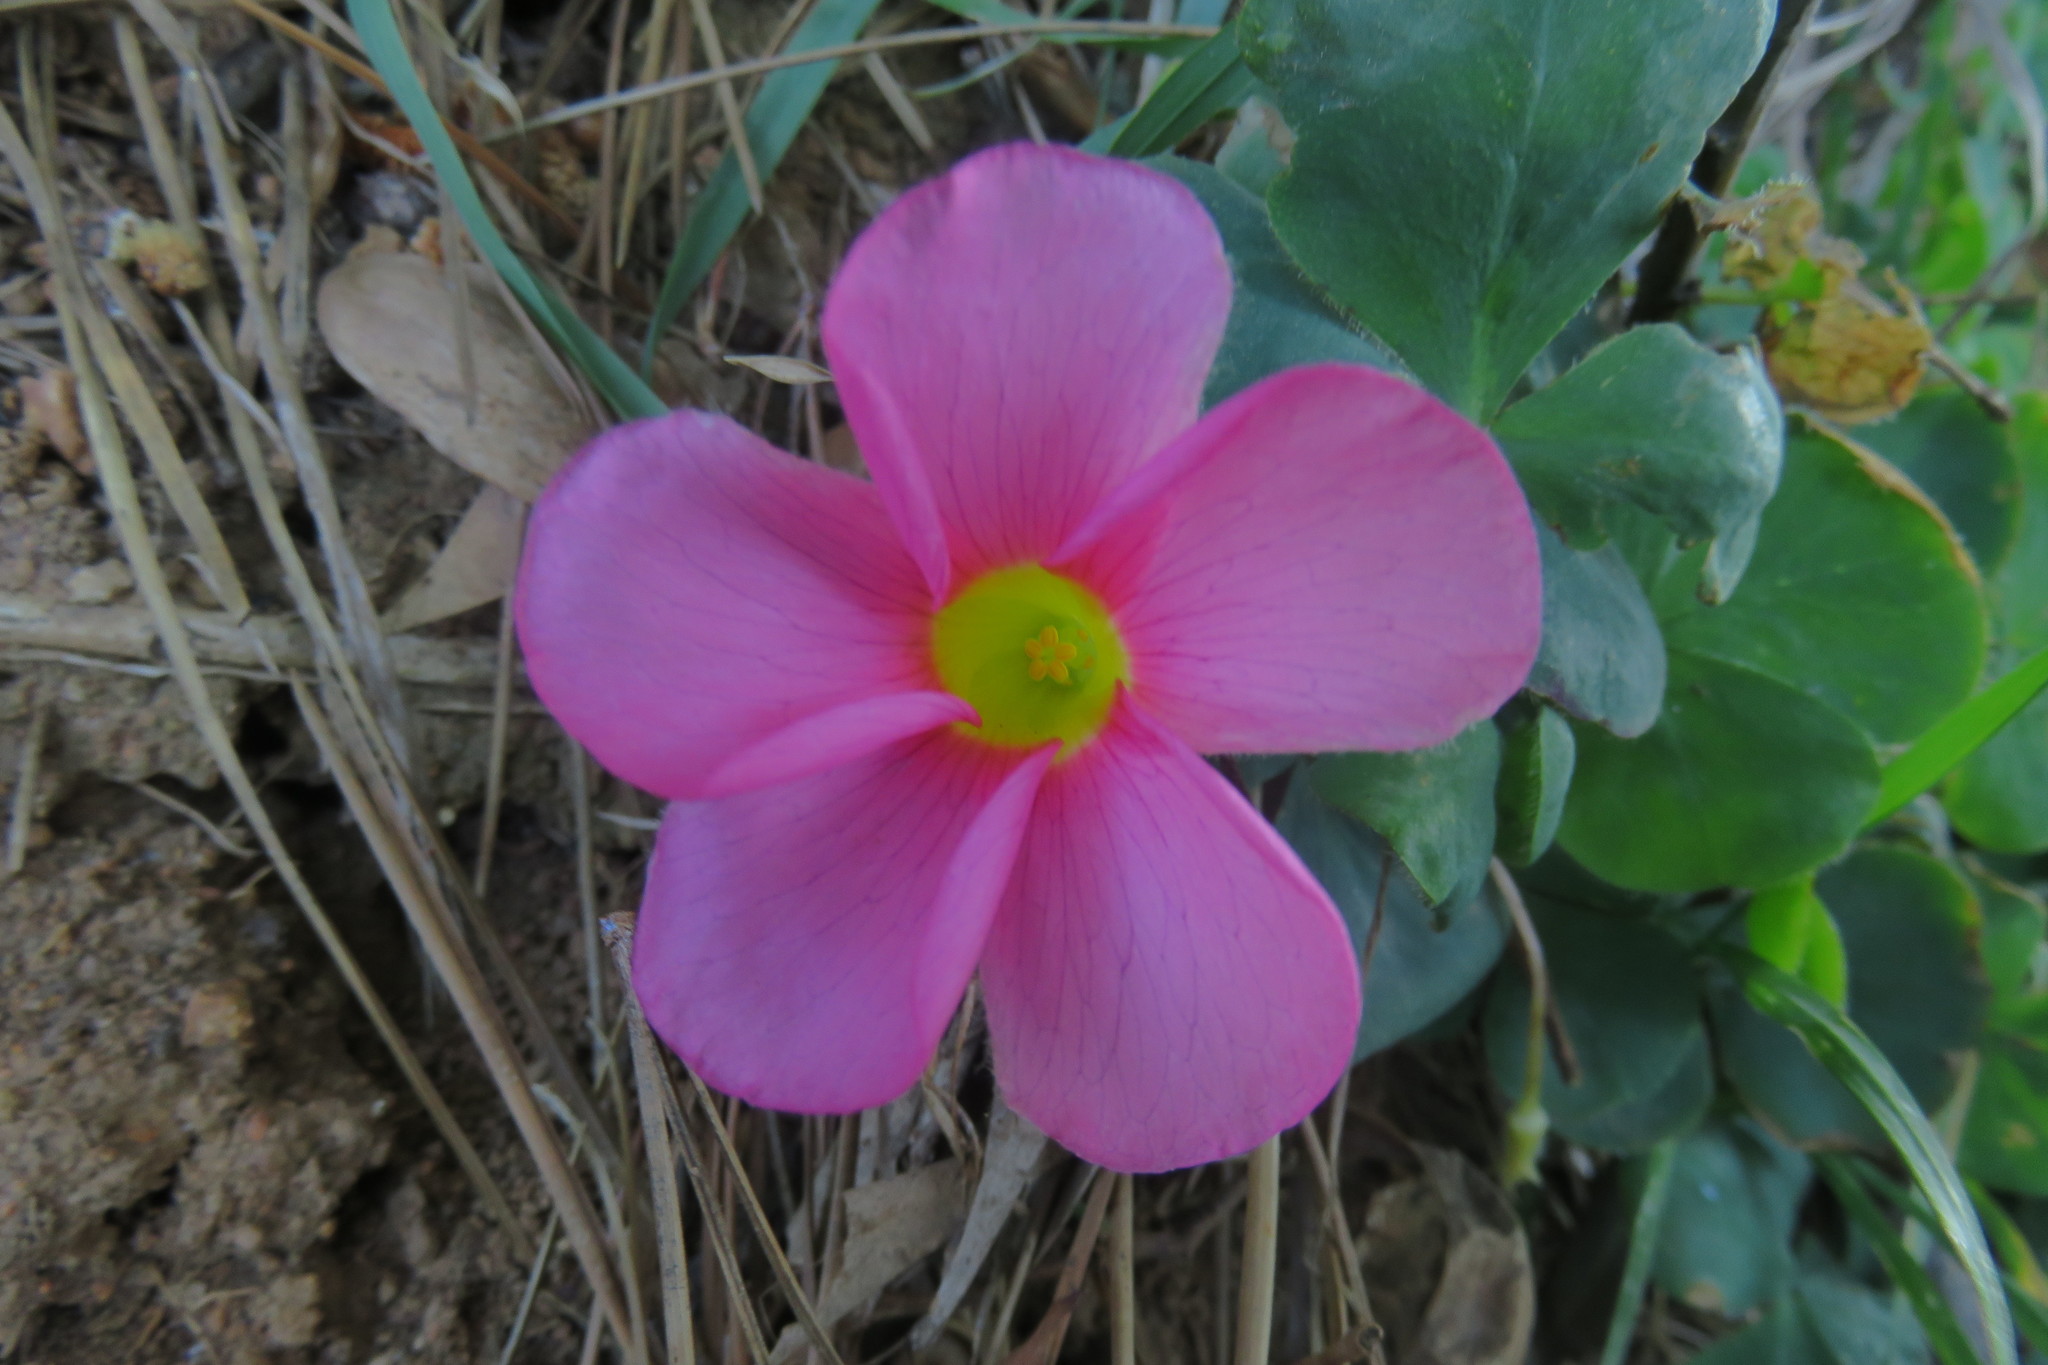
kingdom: Plantae
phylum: Tracheophyta
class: Magnoliopsida
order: Oxalidales
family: Oxalidaceae
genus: Oxalis
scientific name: Oxalis purpurea
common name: Purple woodsorrel
